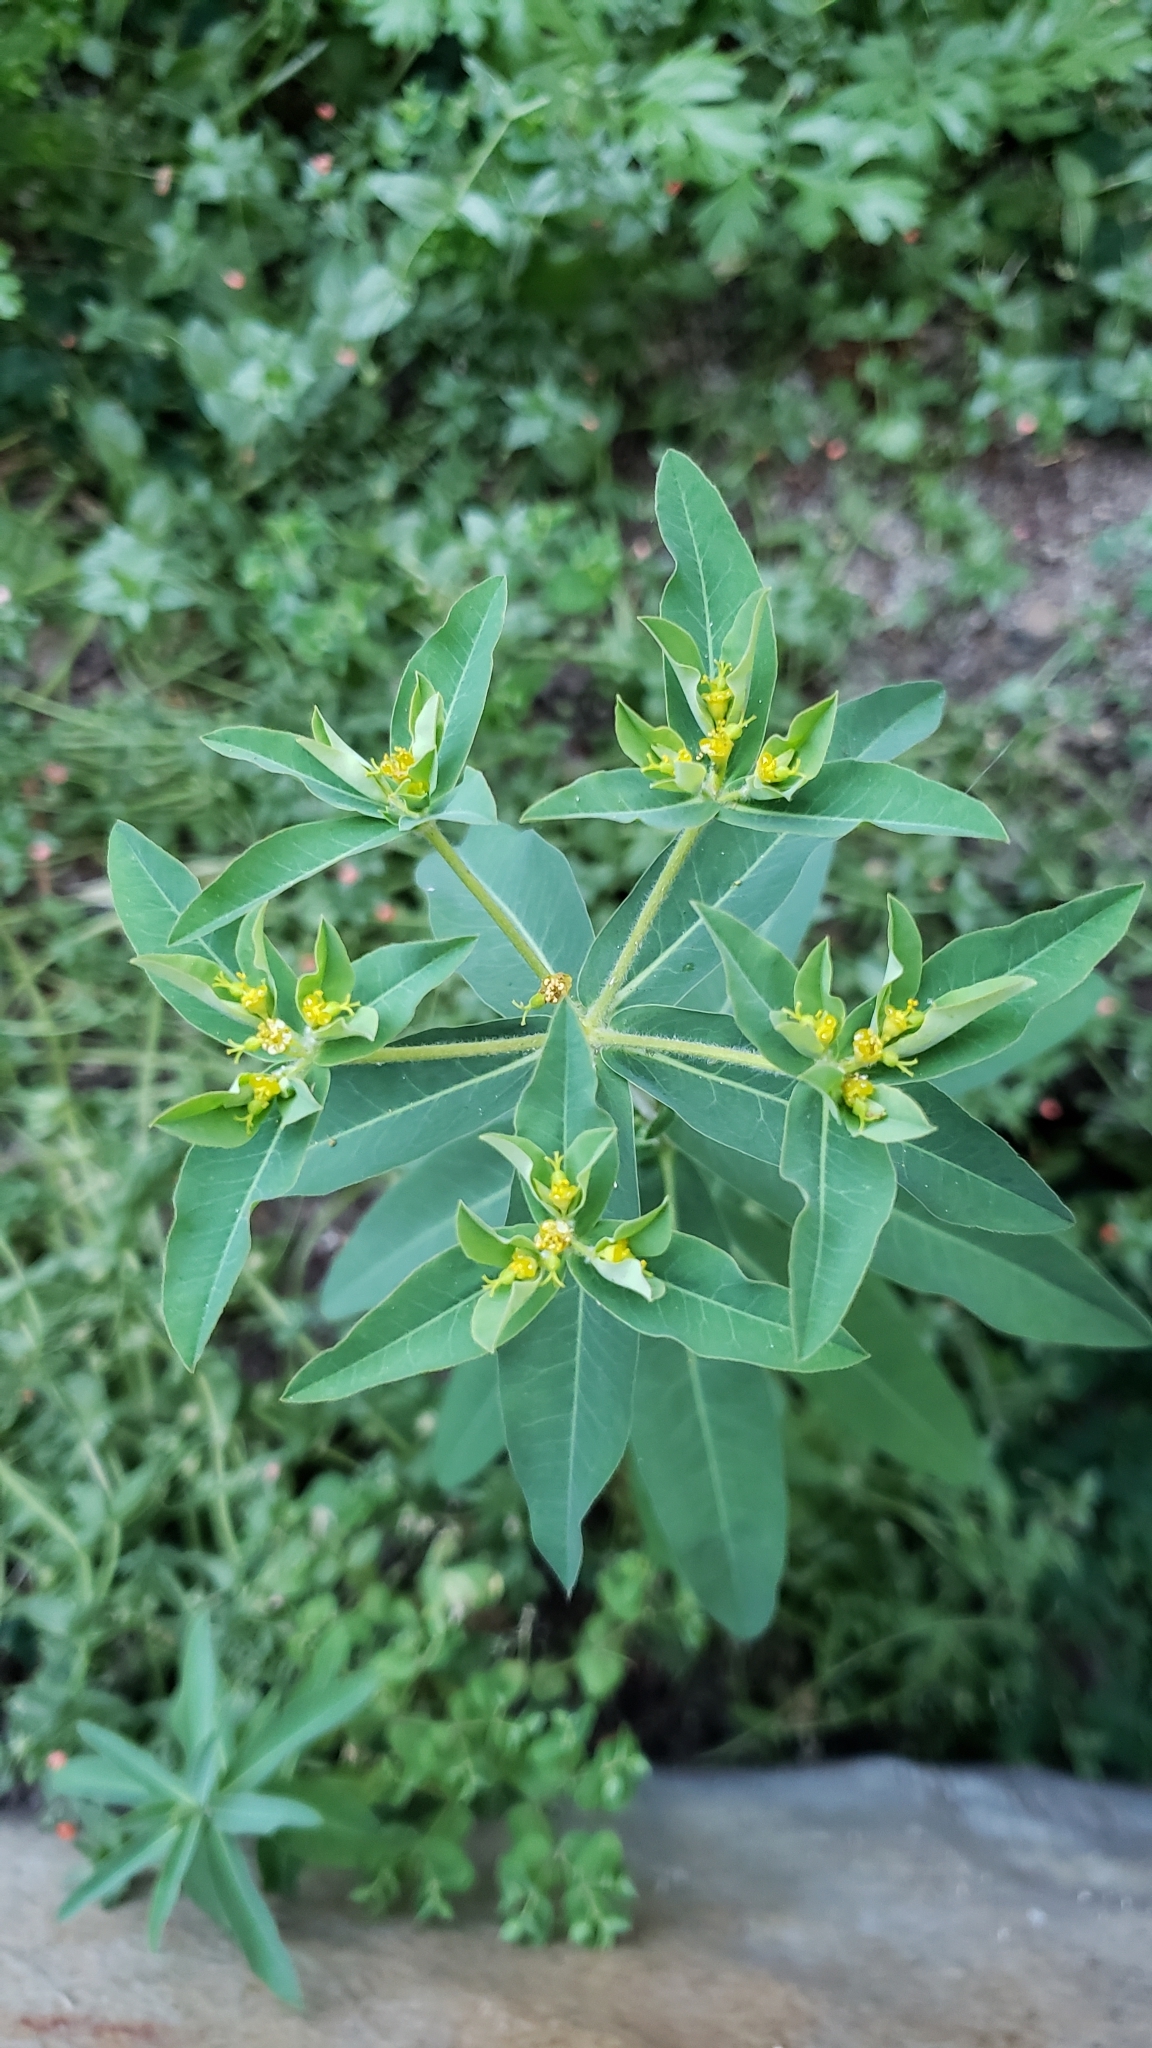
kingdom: Plantae
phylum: Tracheophyta
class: Magnoliopsida
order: Malpighiales
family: Euphorbiaceae
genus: Euphorbia
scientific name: Euphorbia oblongata
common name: Balkan spurge
